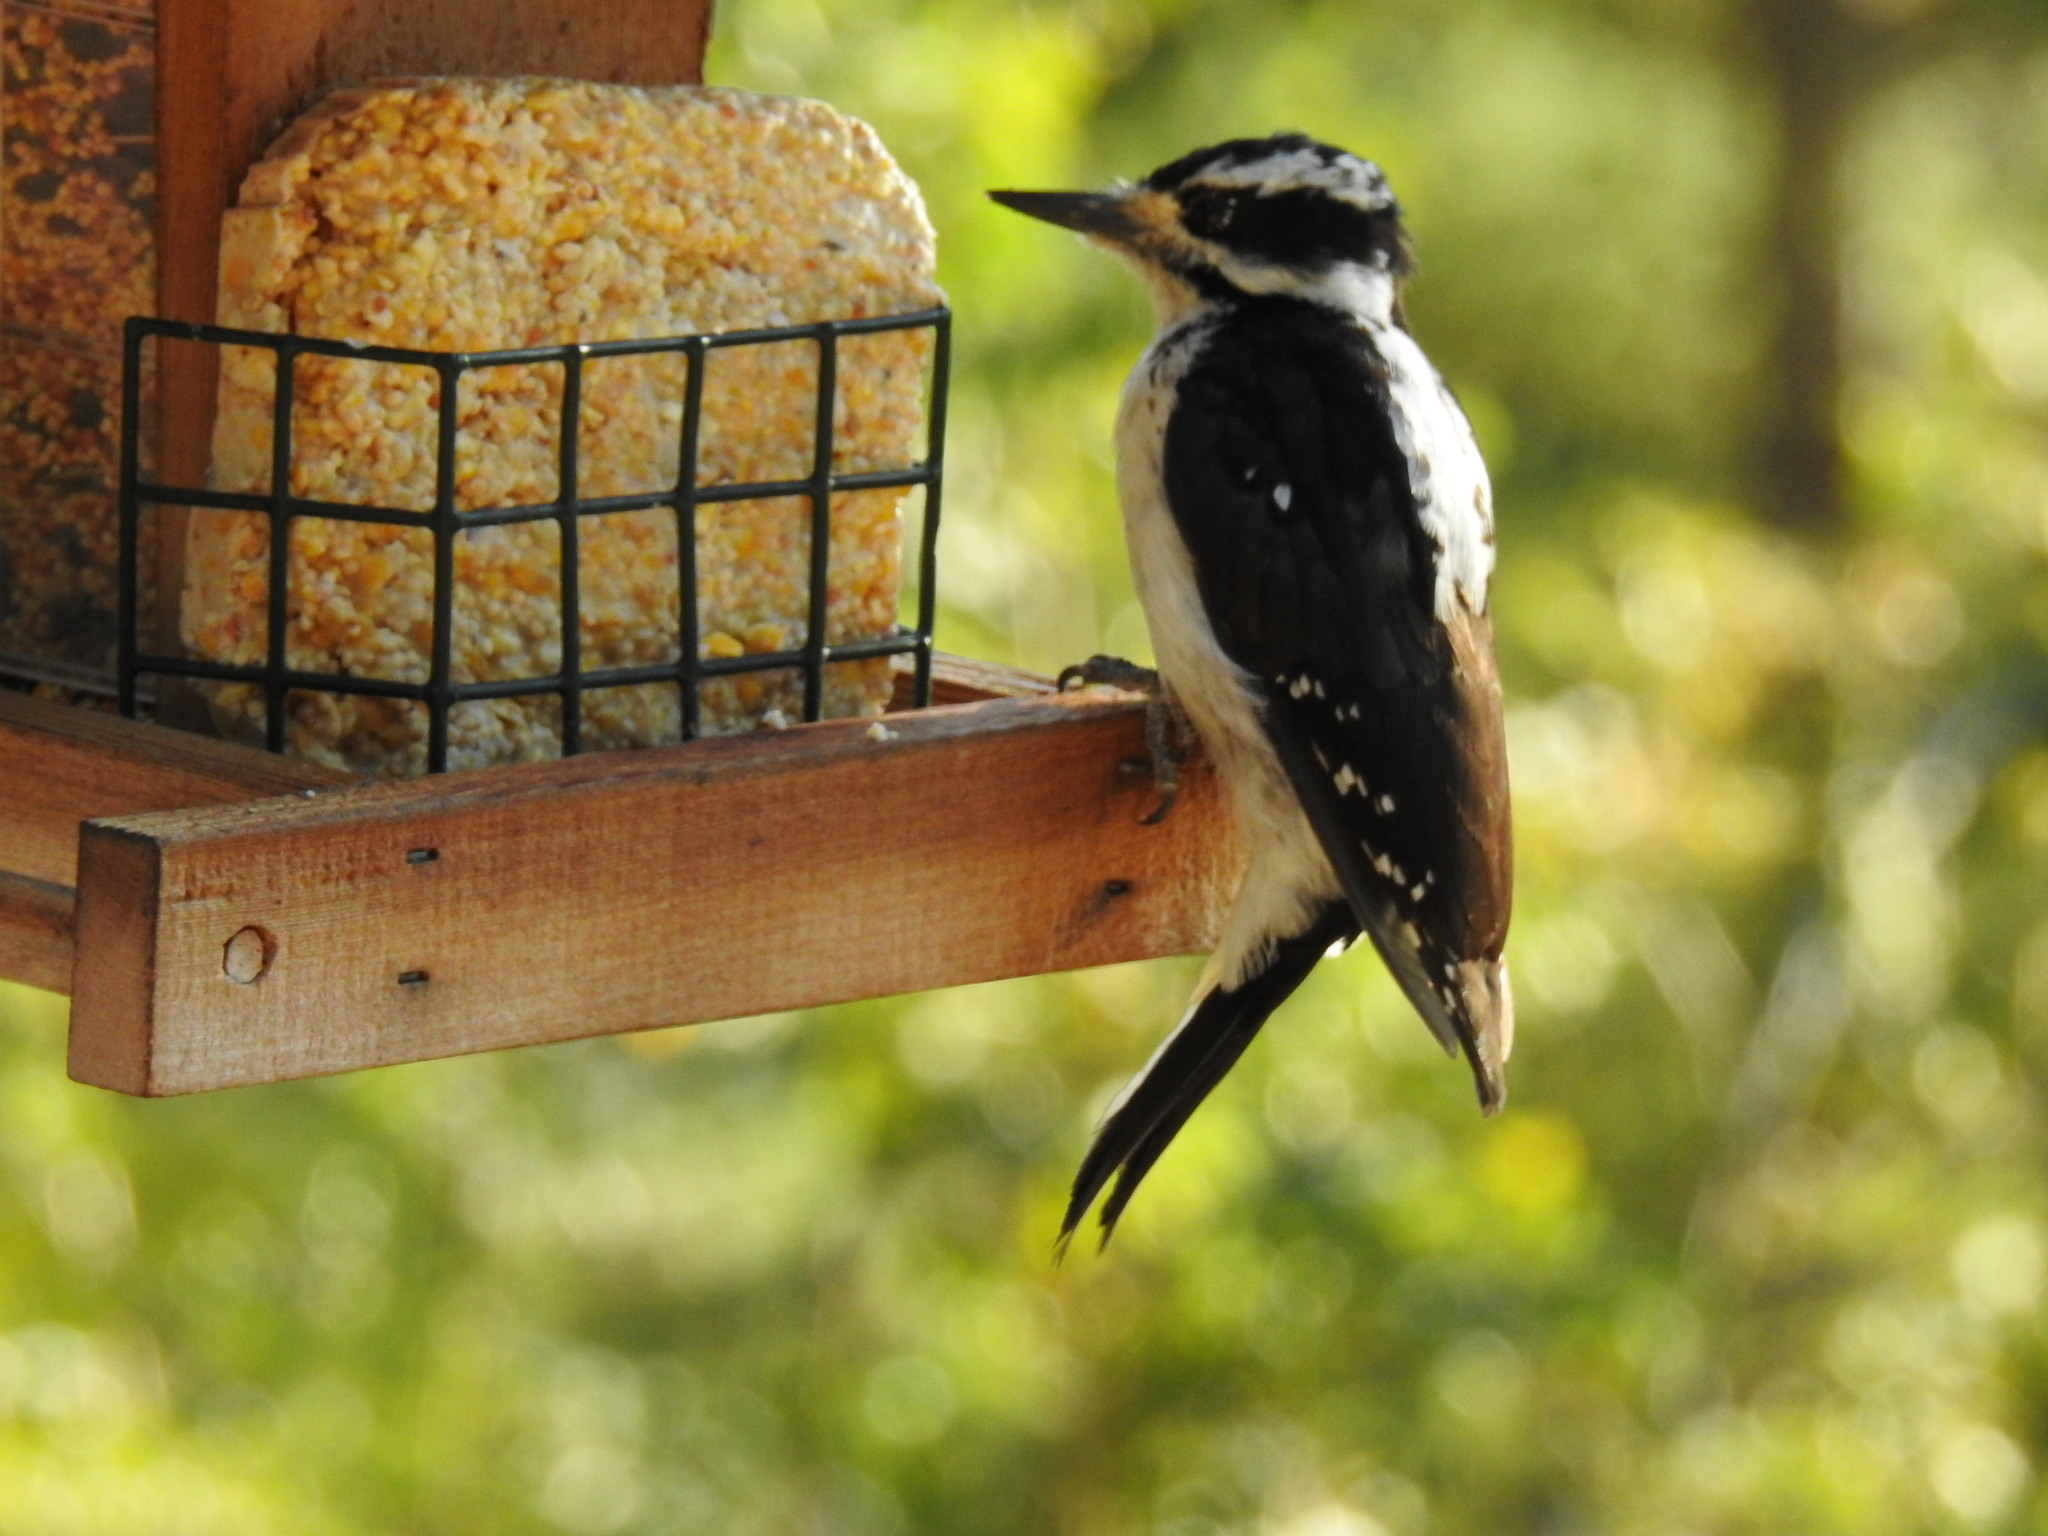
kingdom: Animalia
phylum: Chordata
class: Aves
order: Piciformes
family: Picidae
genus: Leuconotopicus
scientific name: Leuconotopicus villosus
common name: Hairy woodpecker
